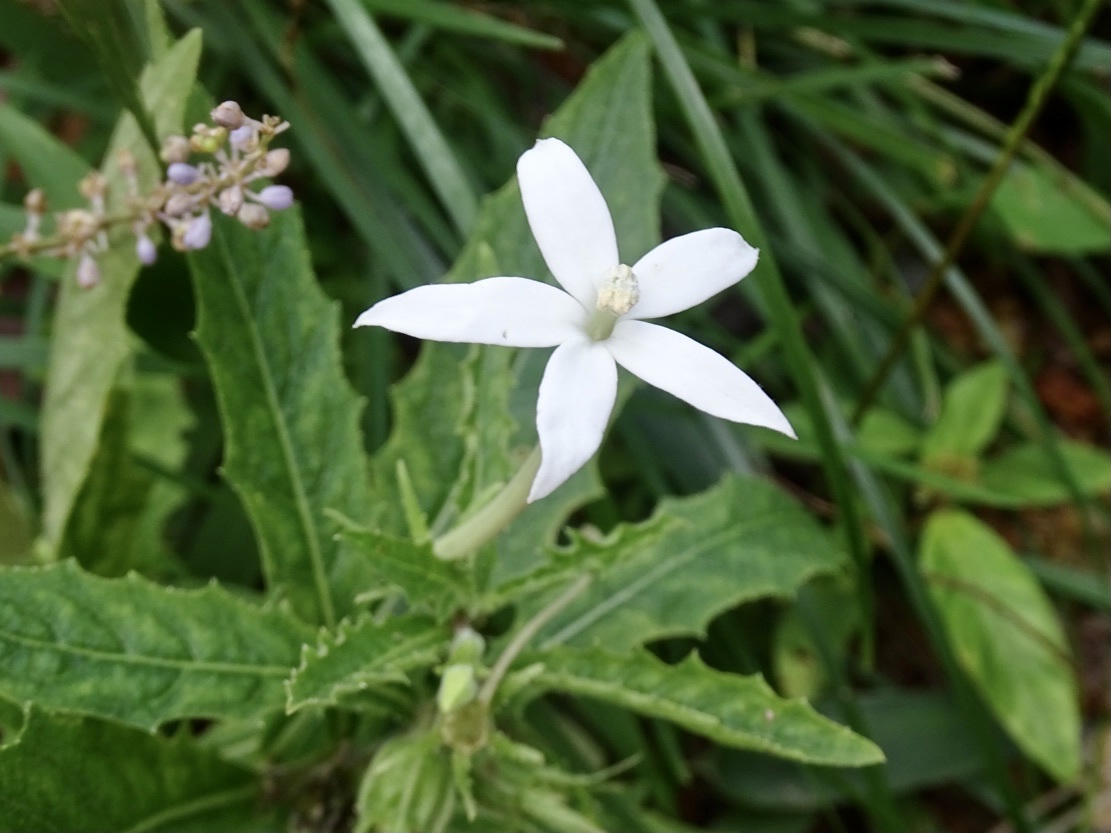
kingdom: Plantae
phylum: Tracheophyta
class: Magnoliopsida
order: Asterales
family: Campanulaceae
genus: Hippobroma
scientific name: Hippobroma longiflora
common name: Madamfate
